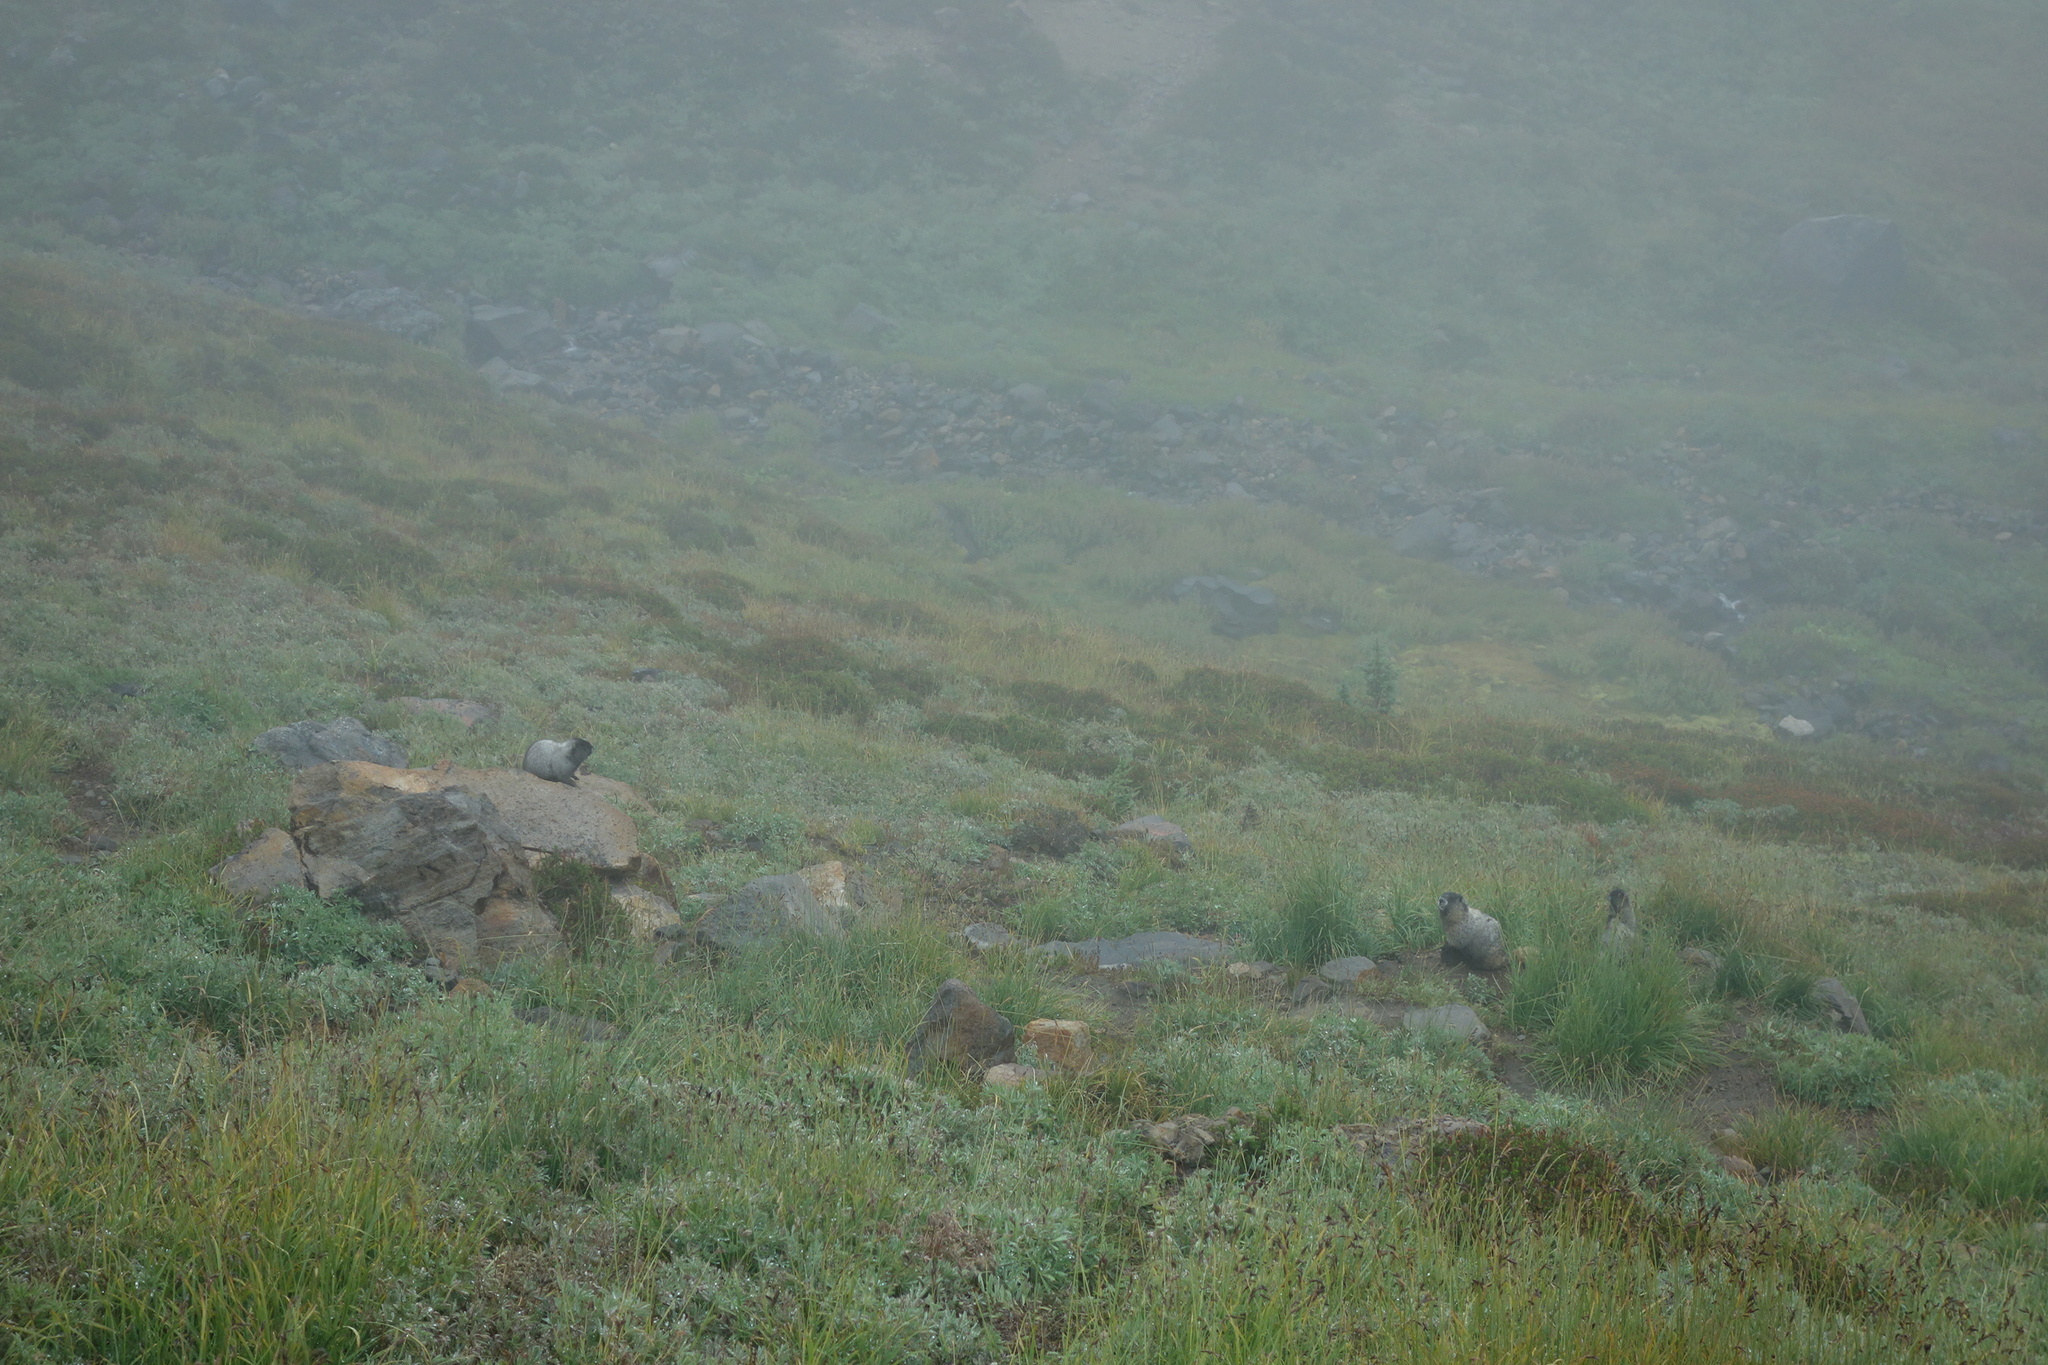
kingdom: Animalia
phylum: Chordata
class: Mammalia
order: Rodentia
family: Sciuridae
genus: Marmota
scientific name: Marmota caligata
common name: Hoary marmot
